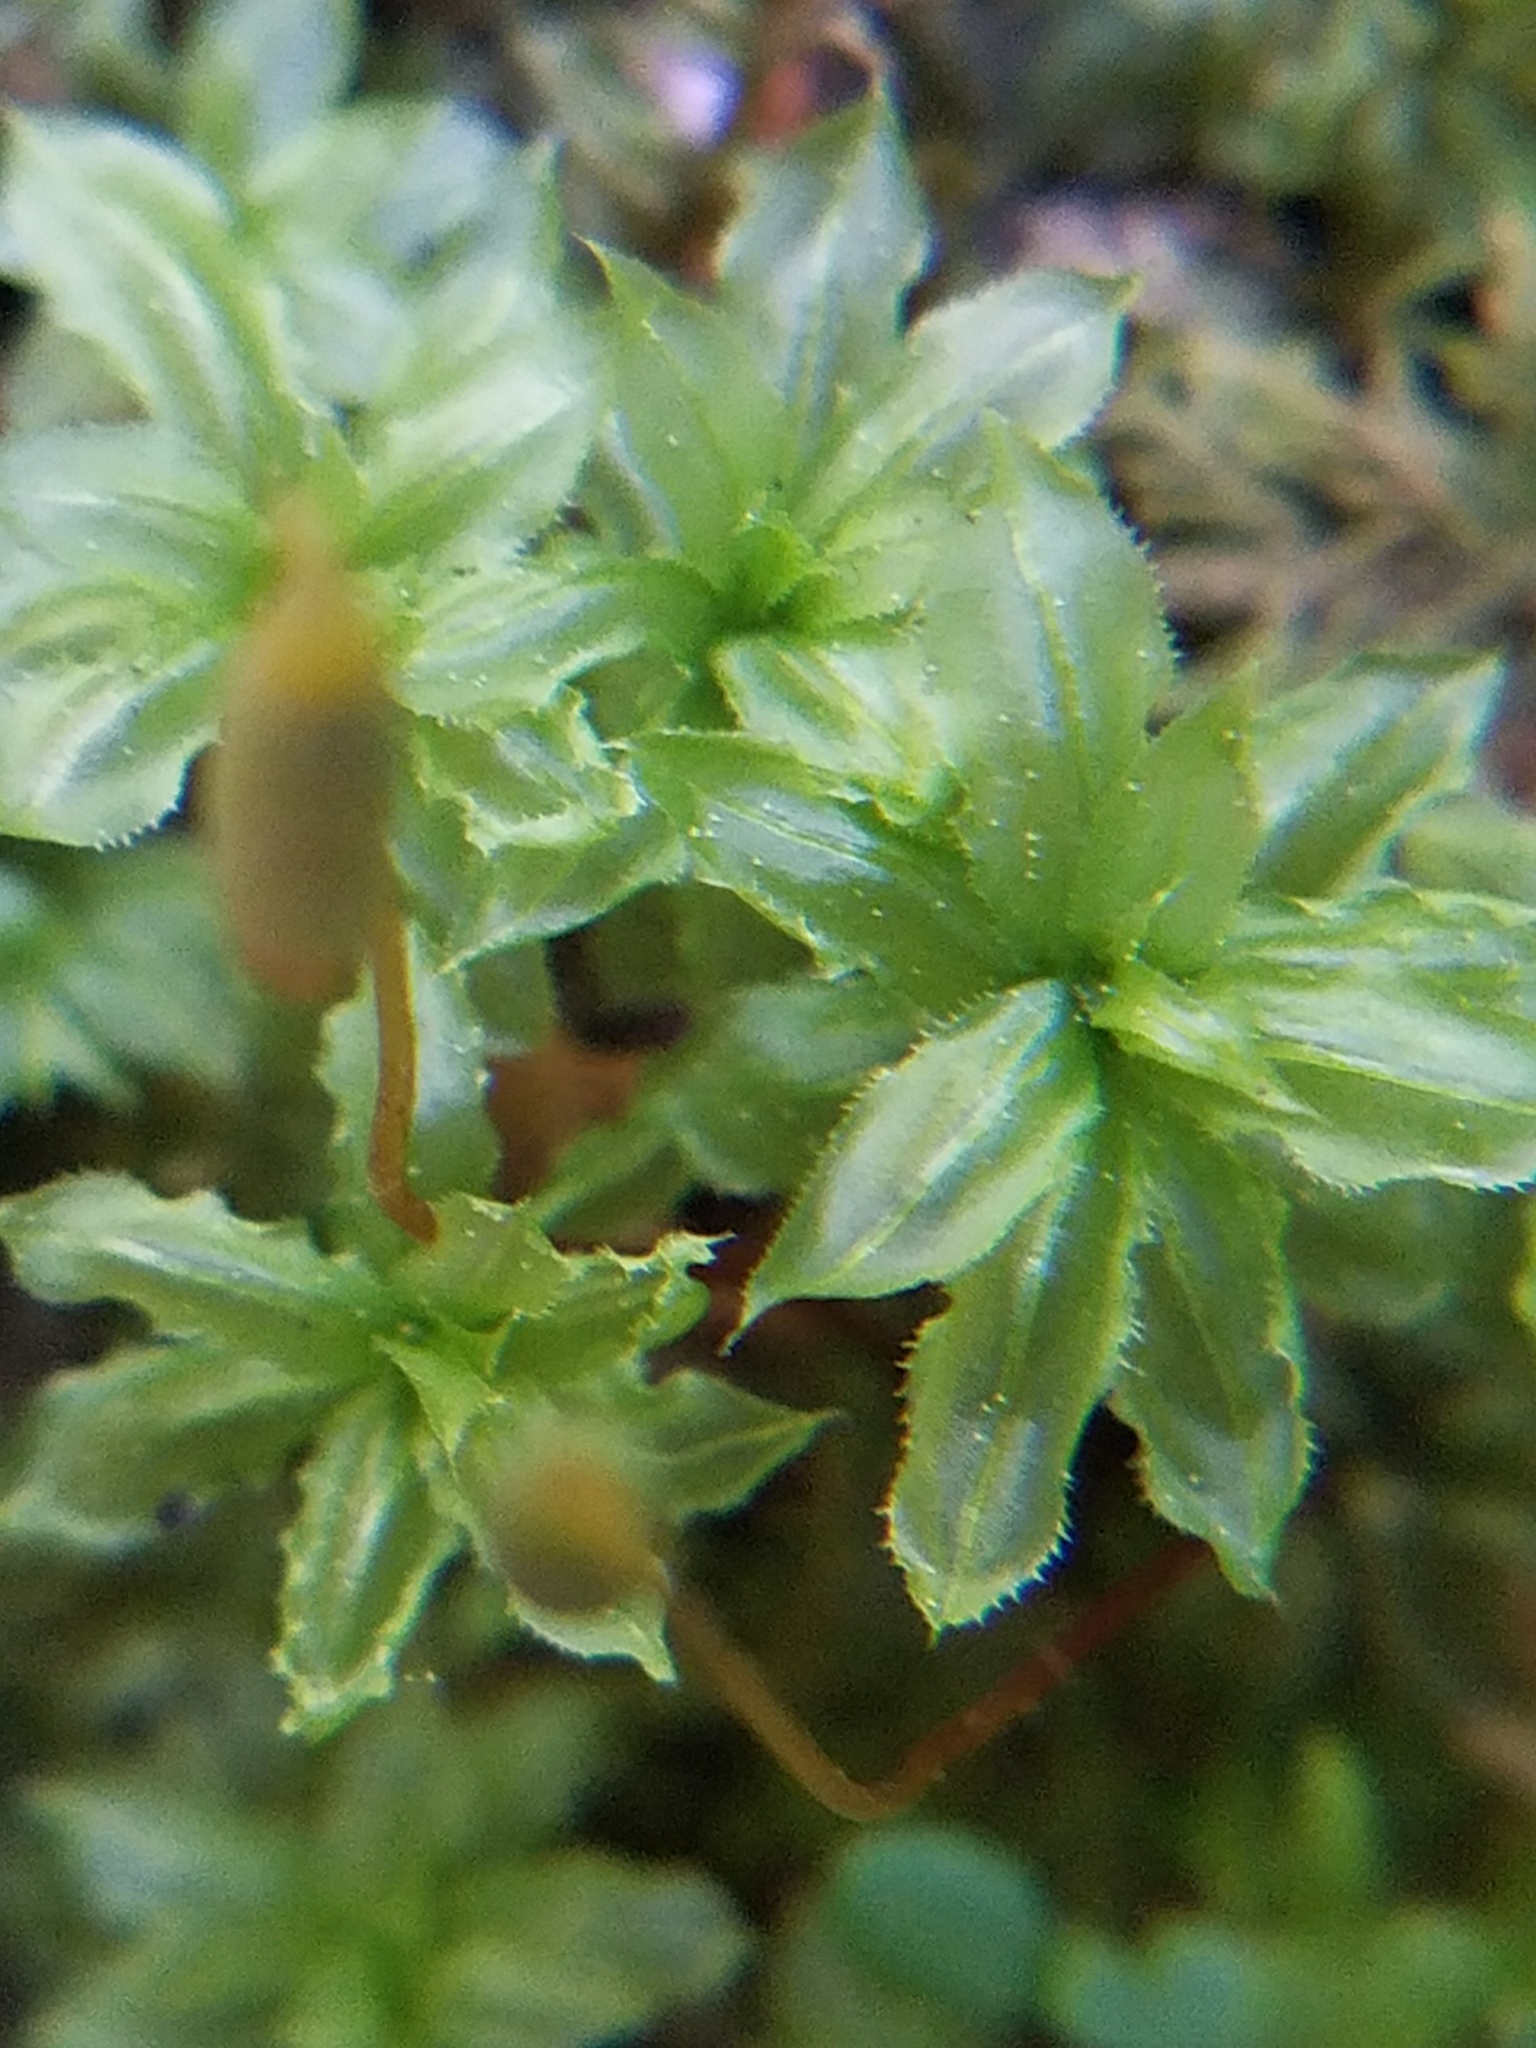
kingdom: Plantae
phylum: Bryophyta
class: Bryopsida
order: Bryales
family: Mniaceae
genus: Plagiomnium
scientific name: Plagiomnium ciliare
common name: Toothed leafy moss
